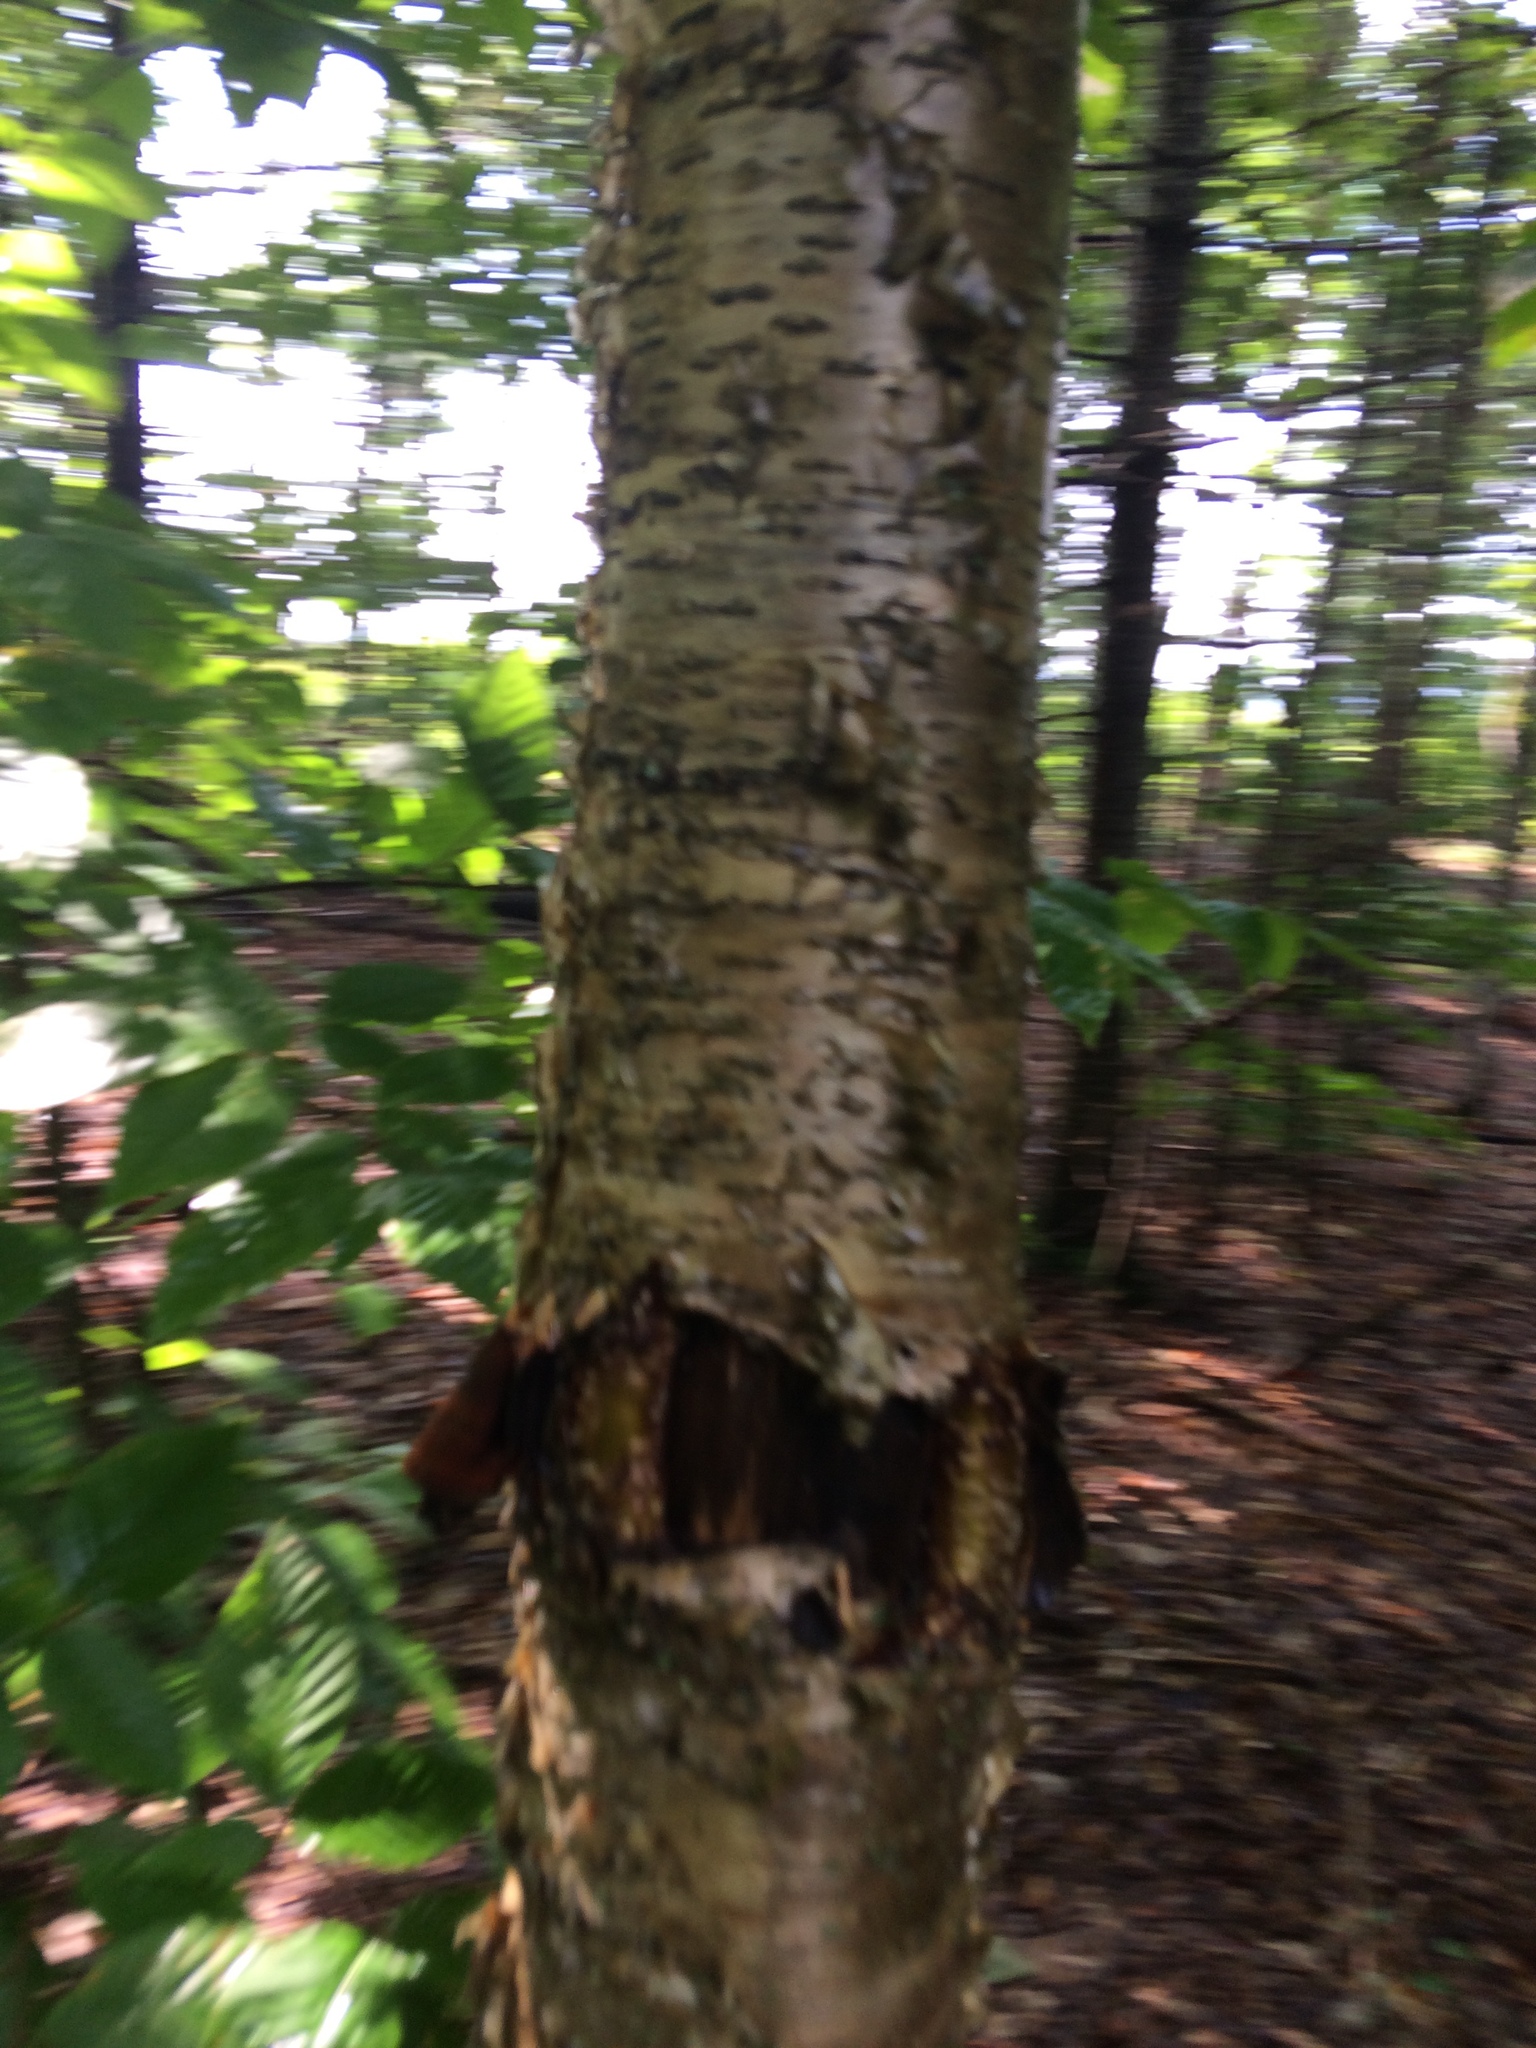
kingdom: Plantae
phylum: Tracheophyta
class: Magnoliopsida
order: Fagales
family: Betulaceae
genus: Betula
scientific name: Betula alleghaniensis
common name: Yellow birch
